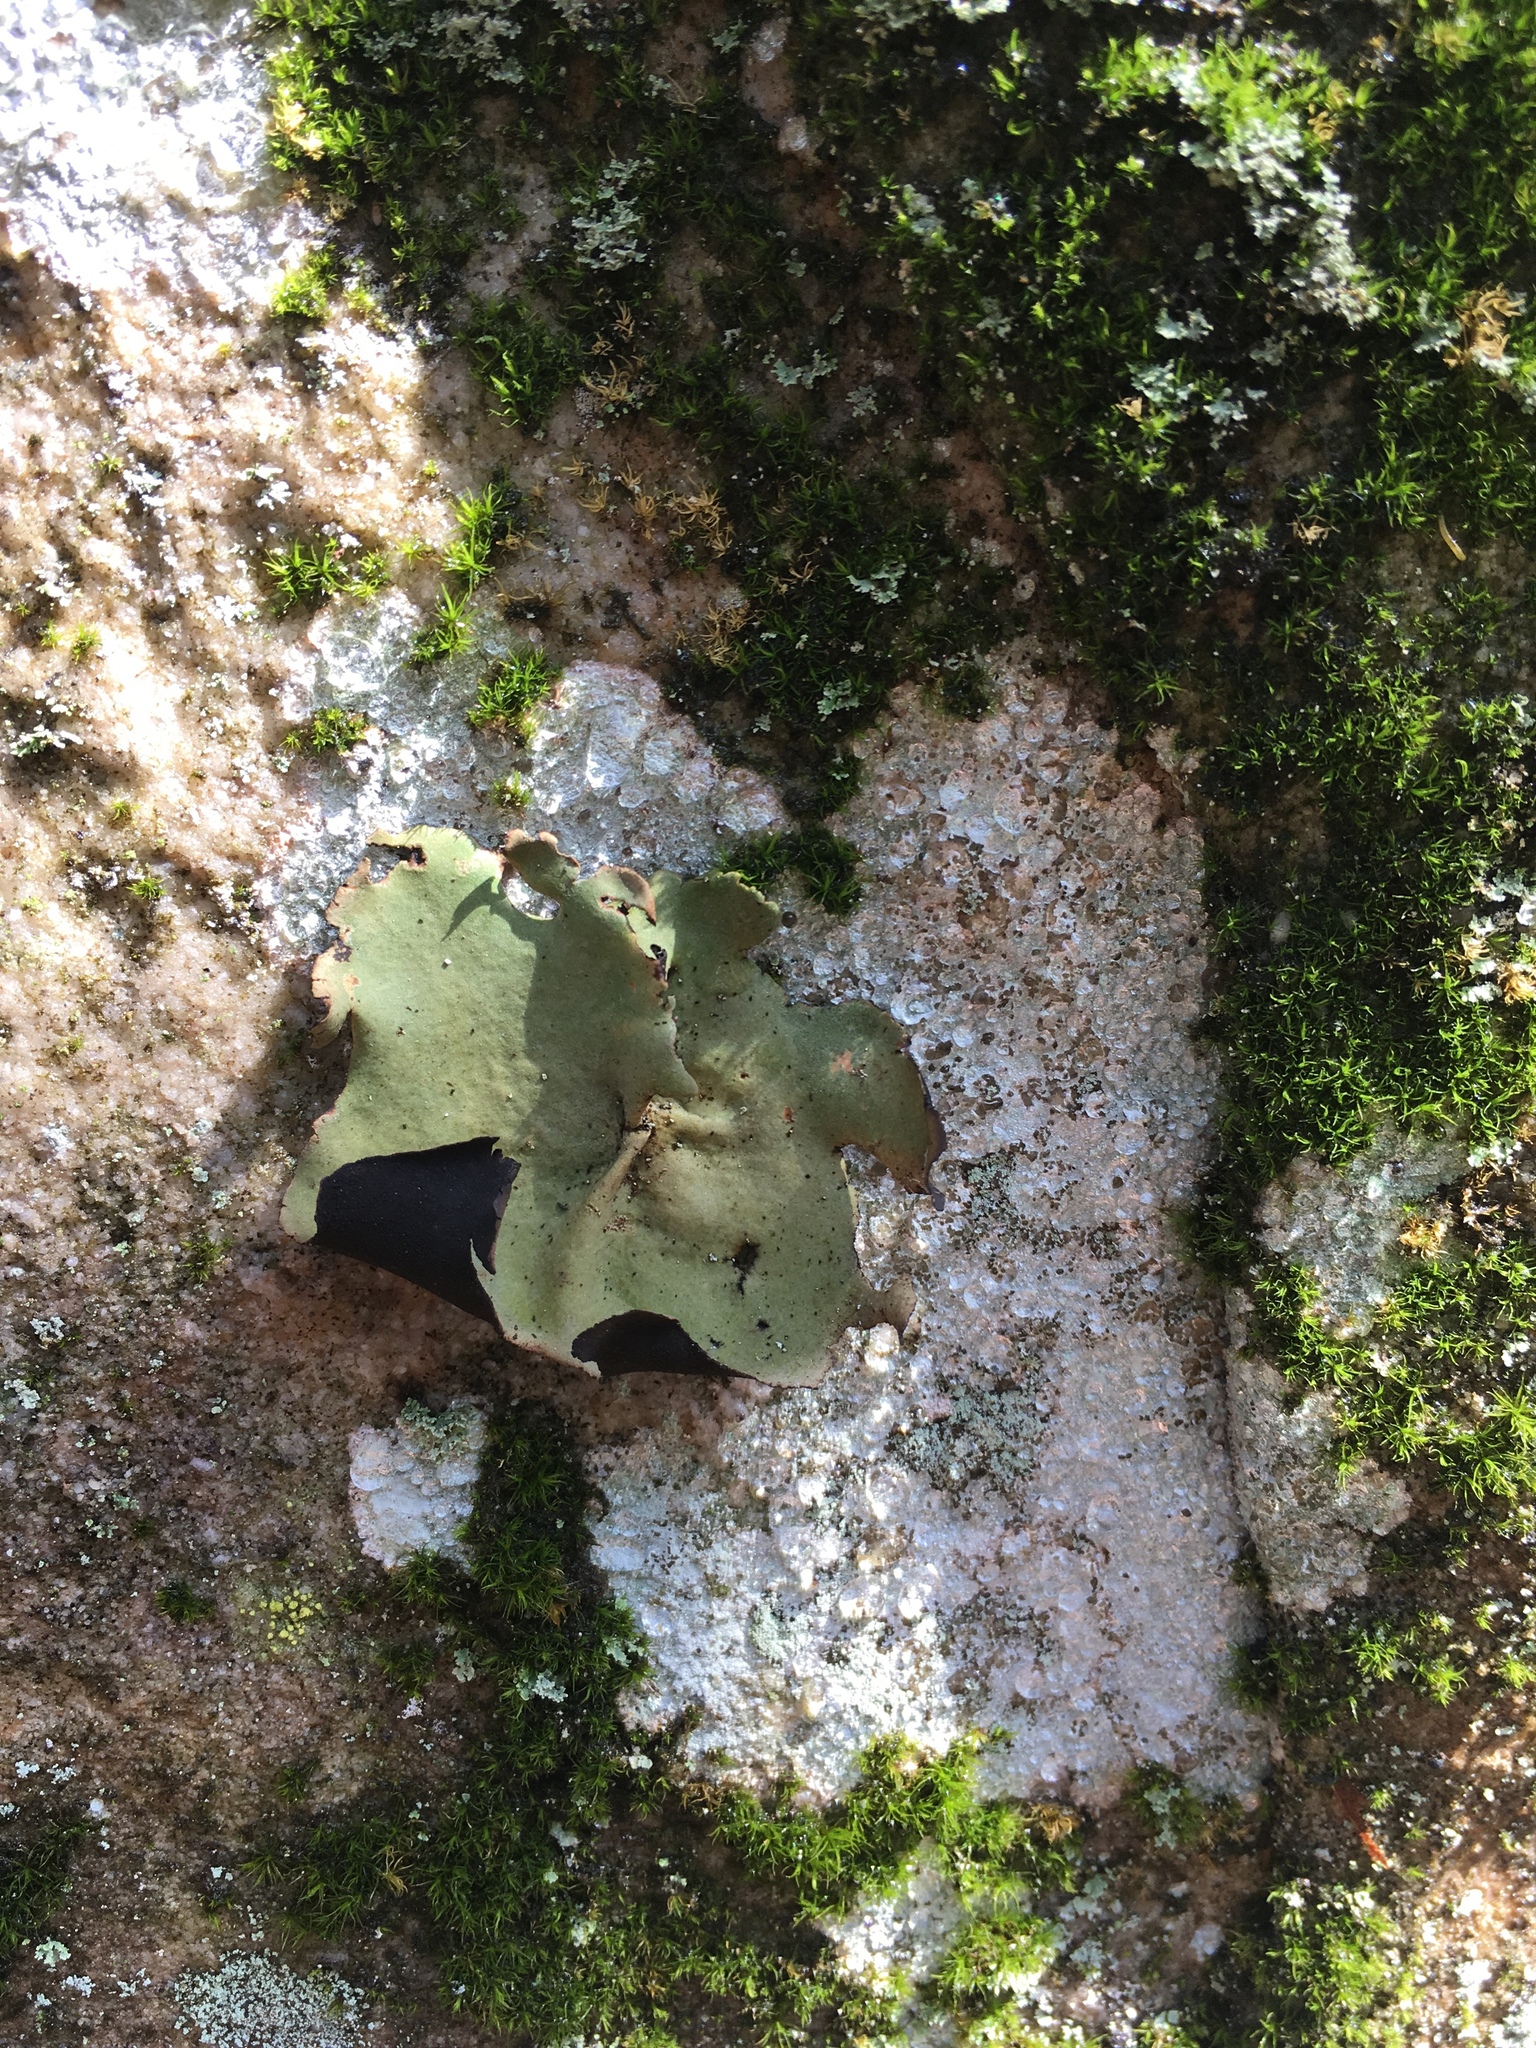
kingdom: Fungi
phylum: Ascomycota
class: Lecanoromycetes
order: Umbilicariales
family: Umbilicariaceae
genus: Umbilicaria
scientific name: Umbilicaria mammulata
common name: Smooth rock tripe
